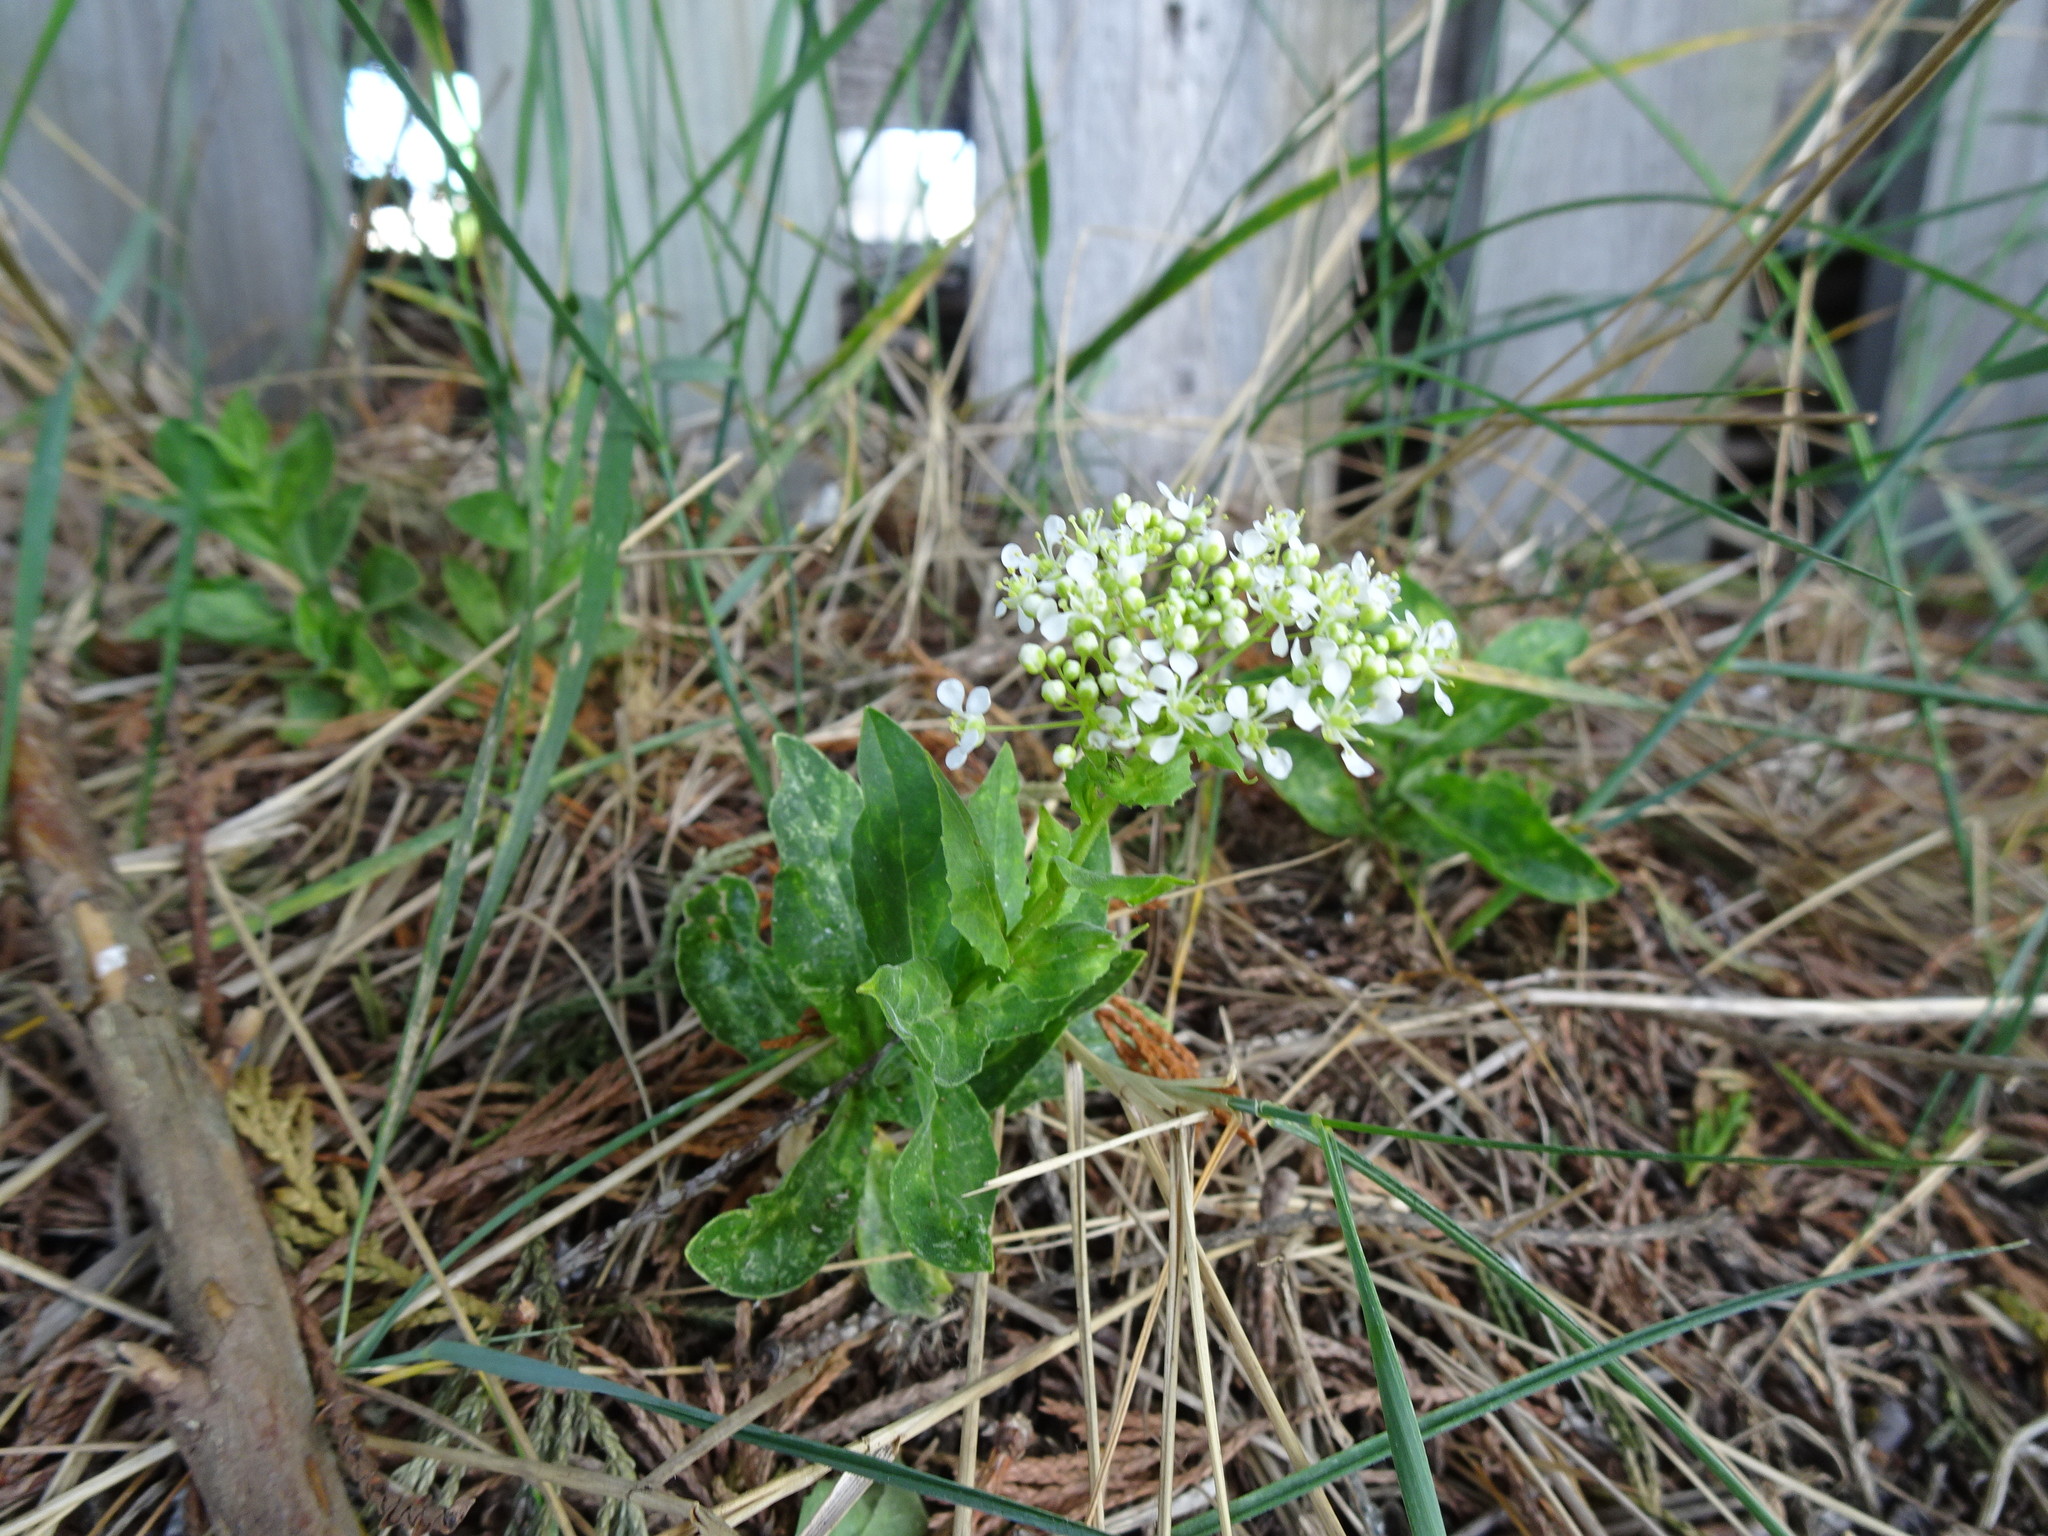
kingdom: Plantae
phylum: Tracheophyta
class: Magnoliopsida
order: Brassicales
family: Brassicaceae
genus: Lepidium
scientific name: Lepidium draba
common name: Hoary cress
